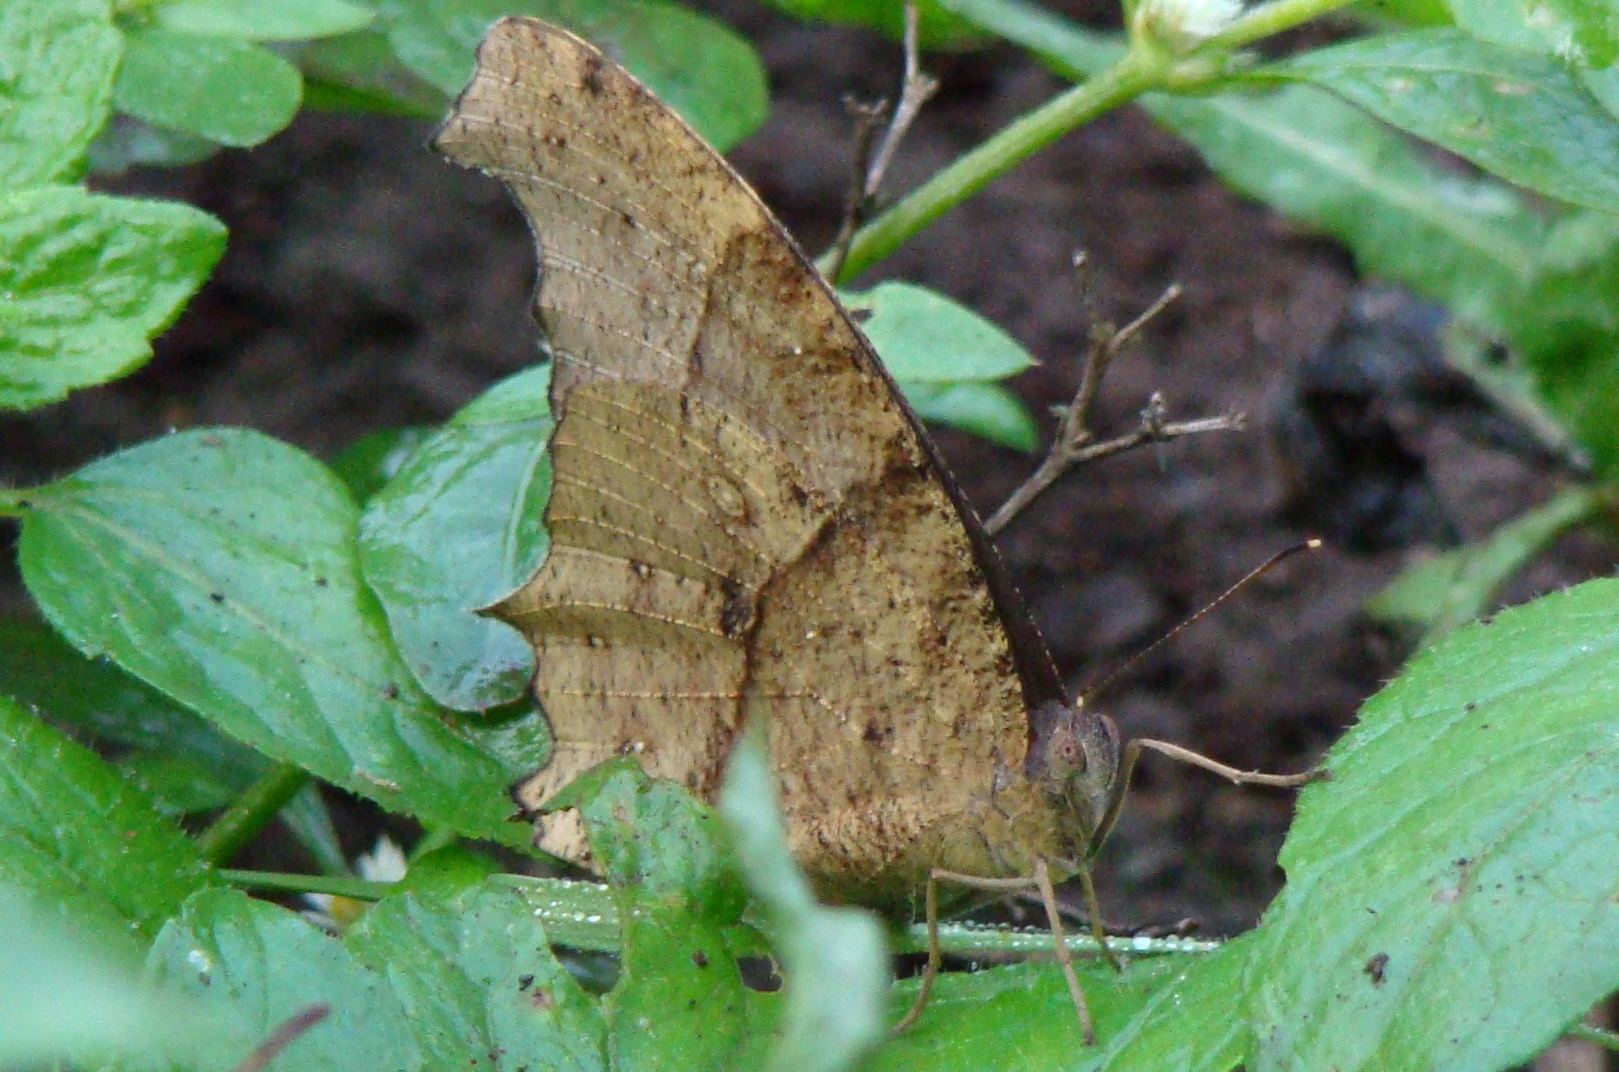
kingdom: Animalia
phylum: Arthropoda
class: Insecta
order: Lepidoptera
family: Nymphalidae
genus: Melanitis
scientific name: Melanitis leda
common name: Twilight brown
